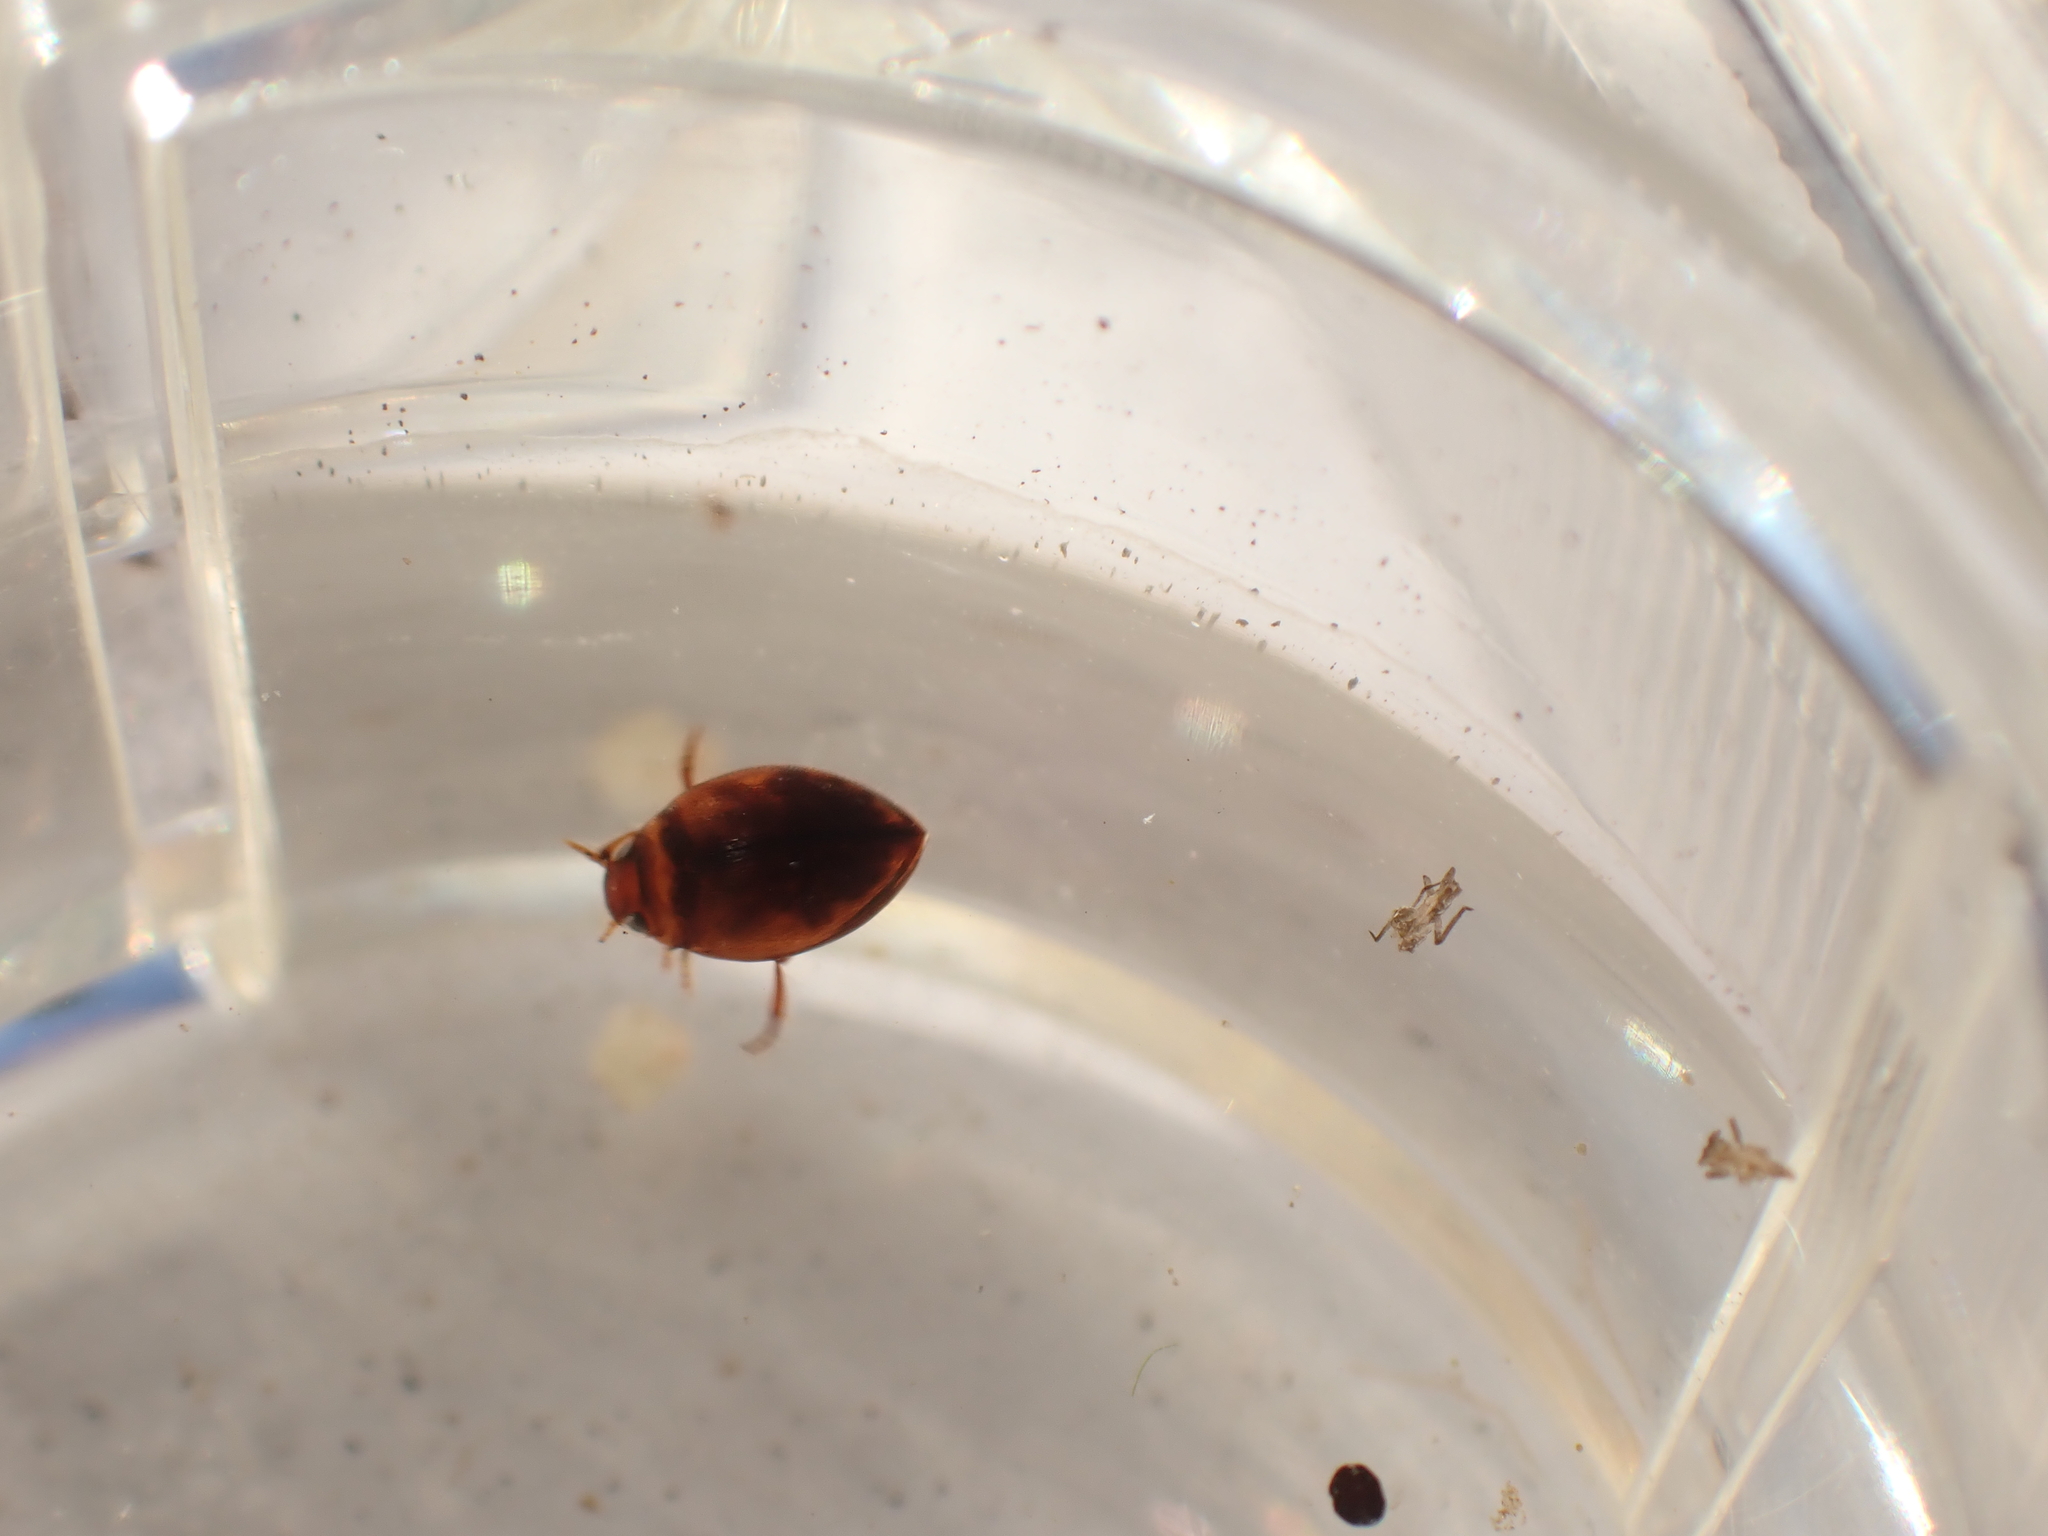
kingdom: Animalia
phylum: Arthropoda
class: Insecta
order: Coleoptera
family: Dytiscidae
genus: Hygrotus
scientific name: Hygrotus sayi
